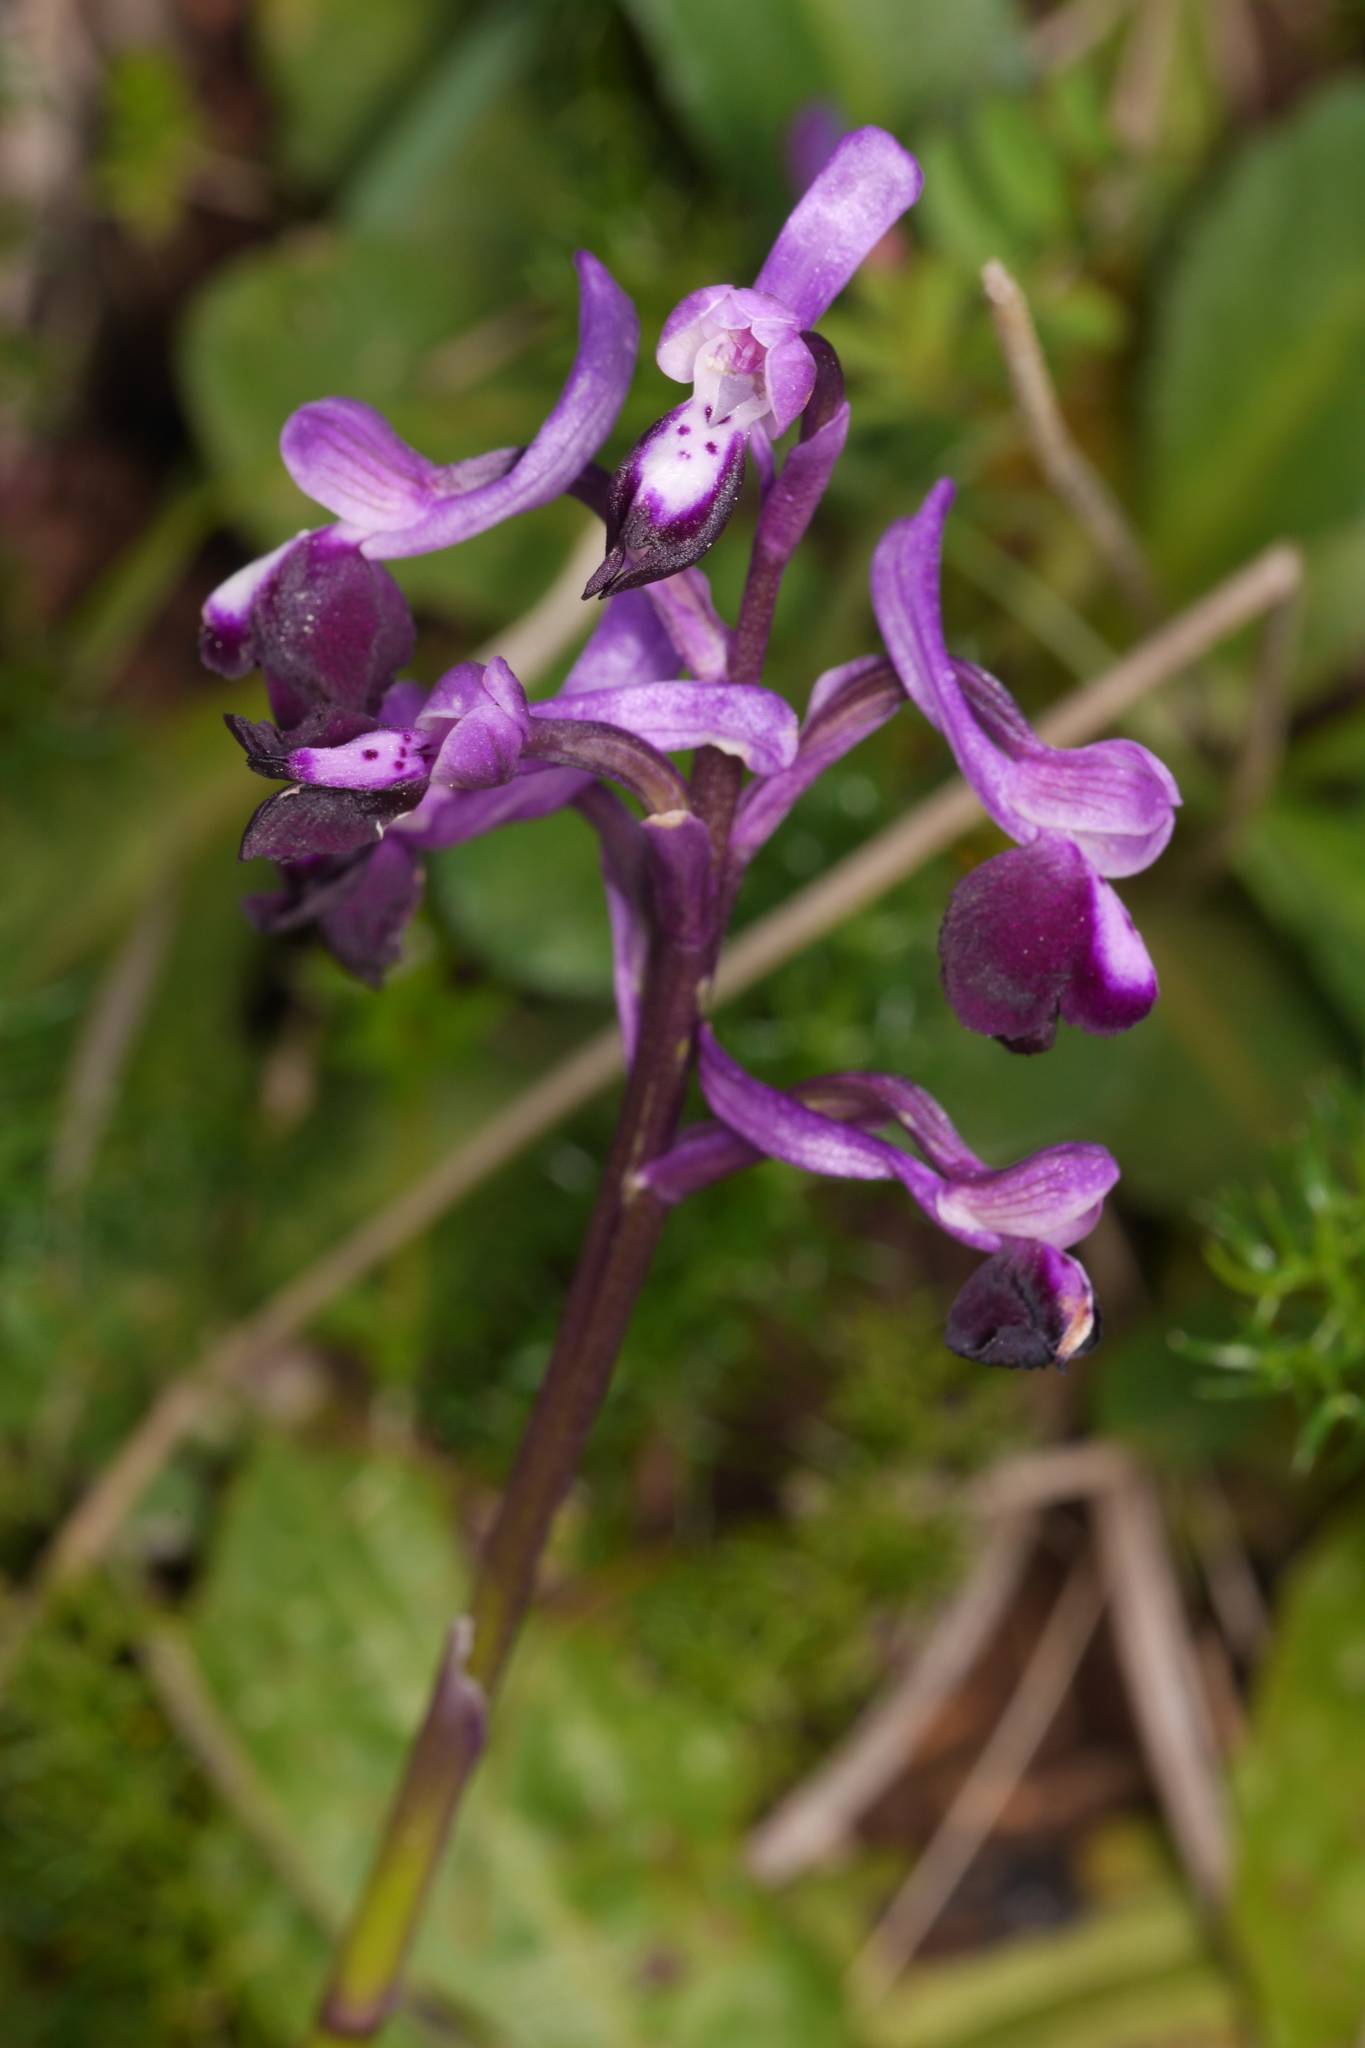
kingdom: Plantae
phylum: Tracheophyta
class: Liliopsida
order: Asparagales
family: Orchidaceae
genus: Anacamptis
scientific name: Anacamptis morio
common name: Green-winged orchid
